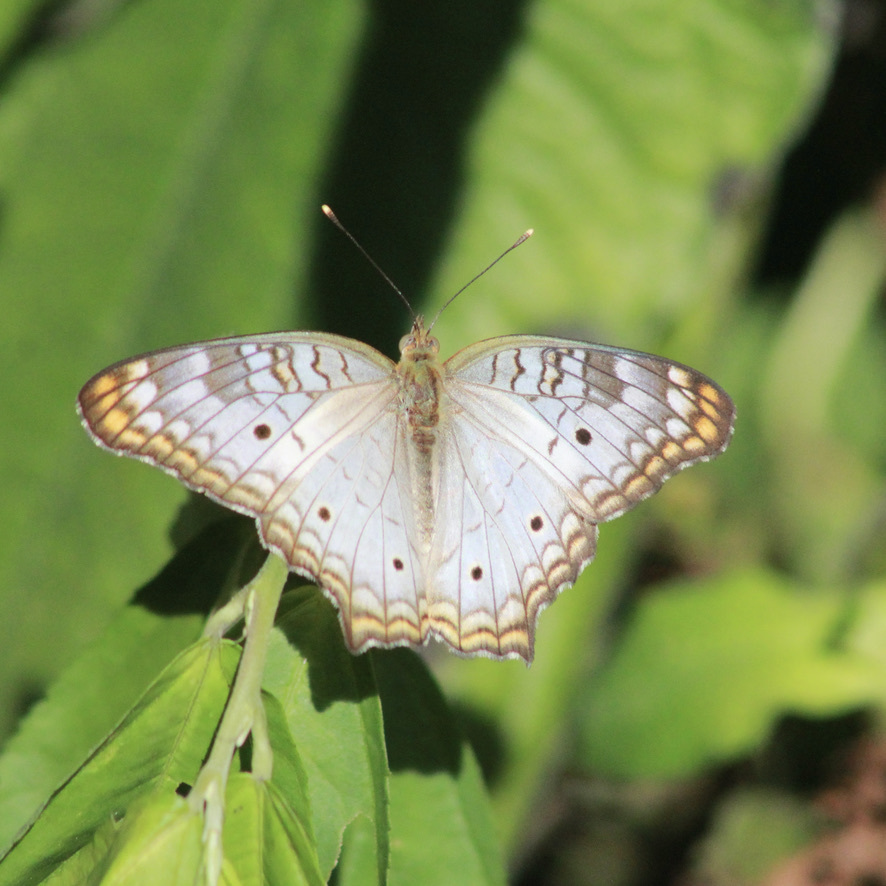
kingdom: Animalia
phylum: Arthropoda
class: Insecta
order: Lepidoptera
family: Nymphalidae
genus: Anartia
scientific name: Anartia jatrophae
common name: White peacock
